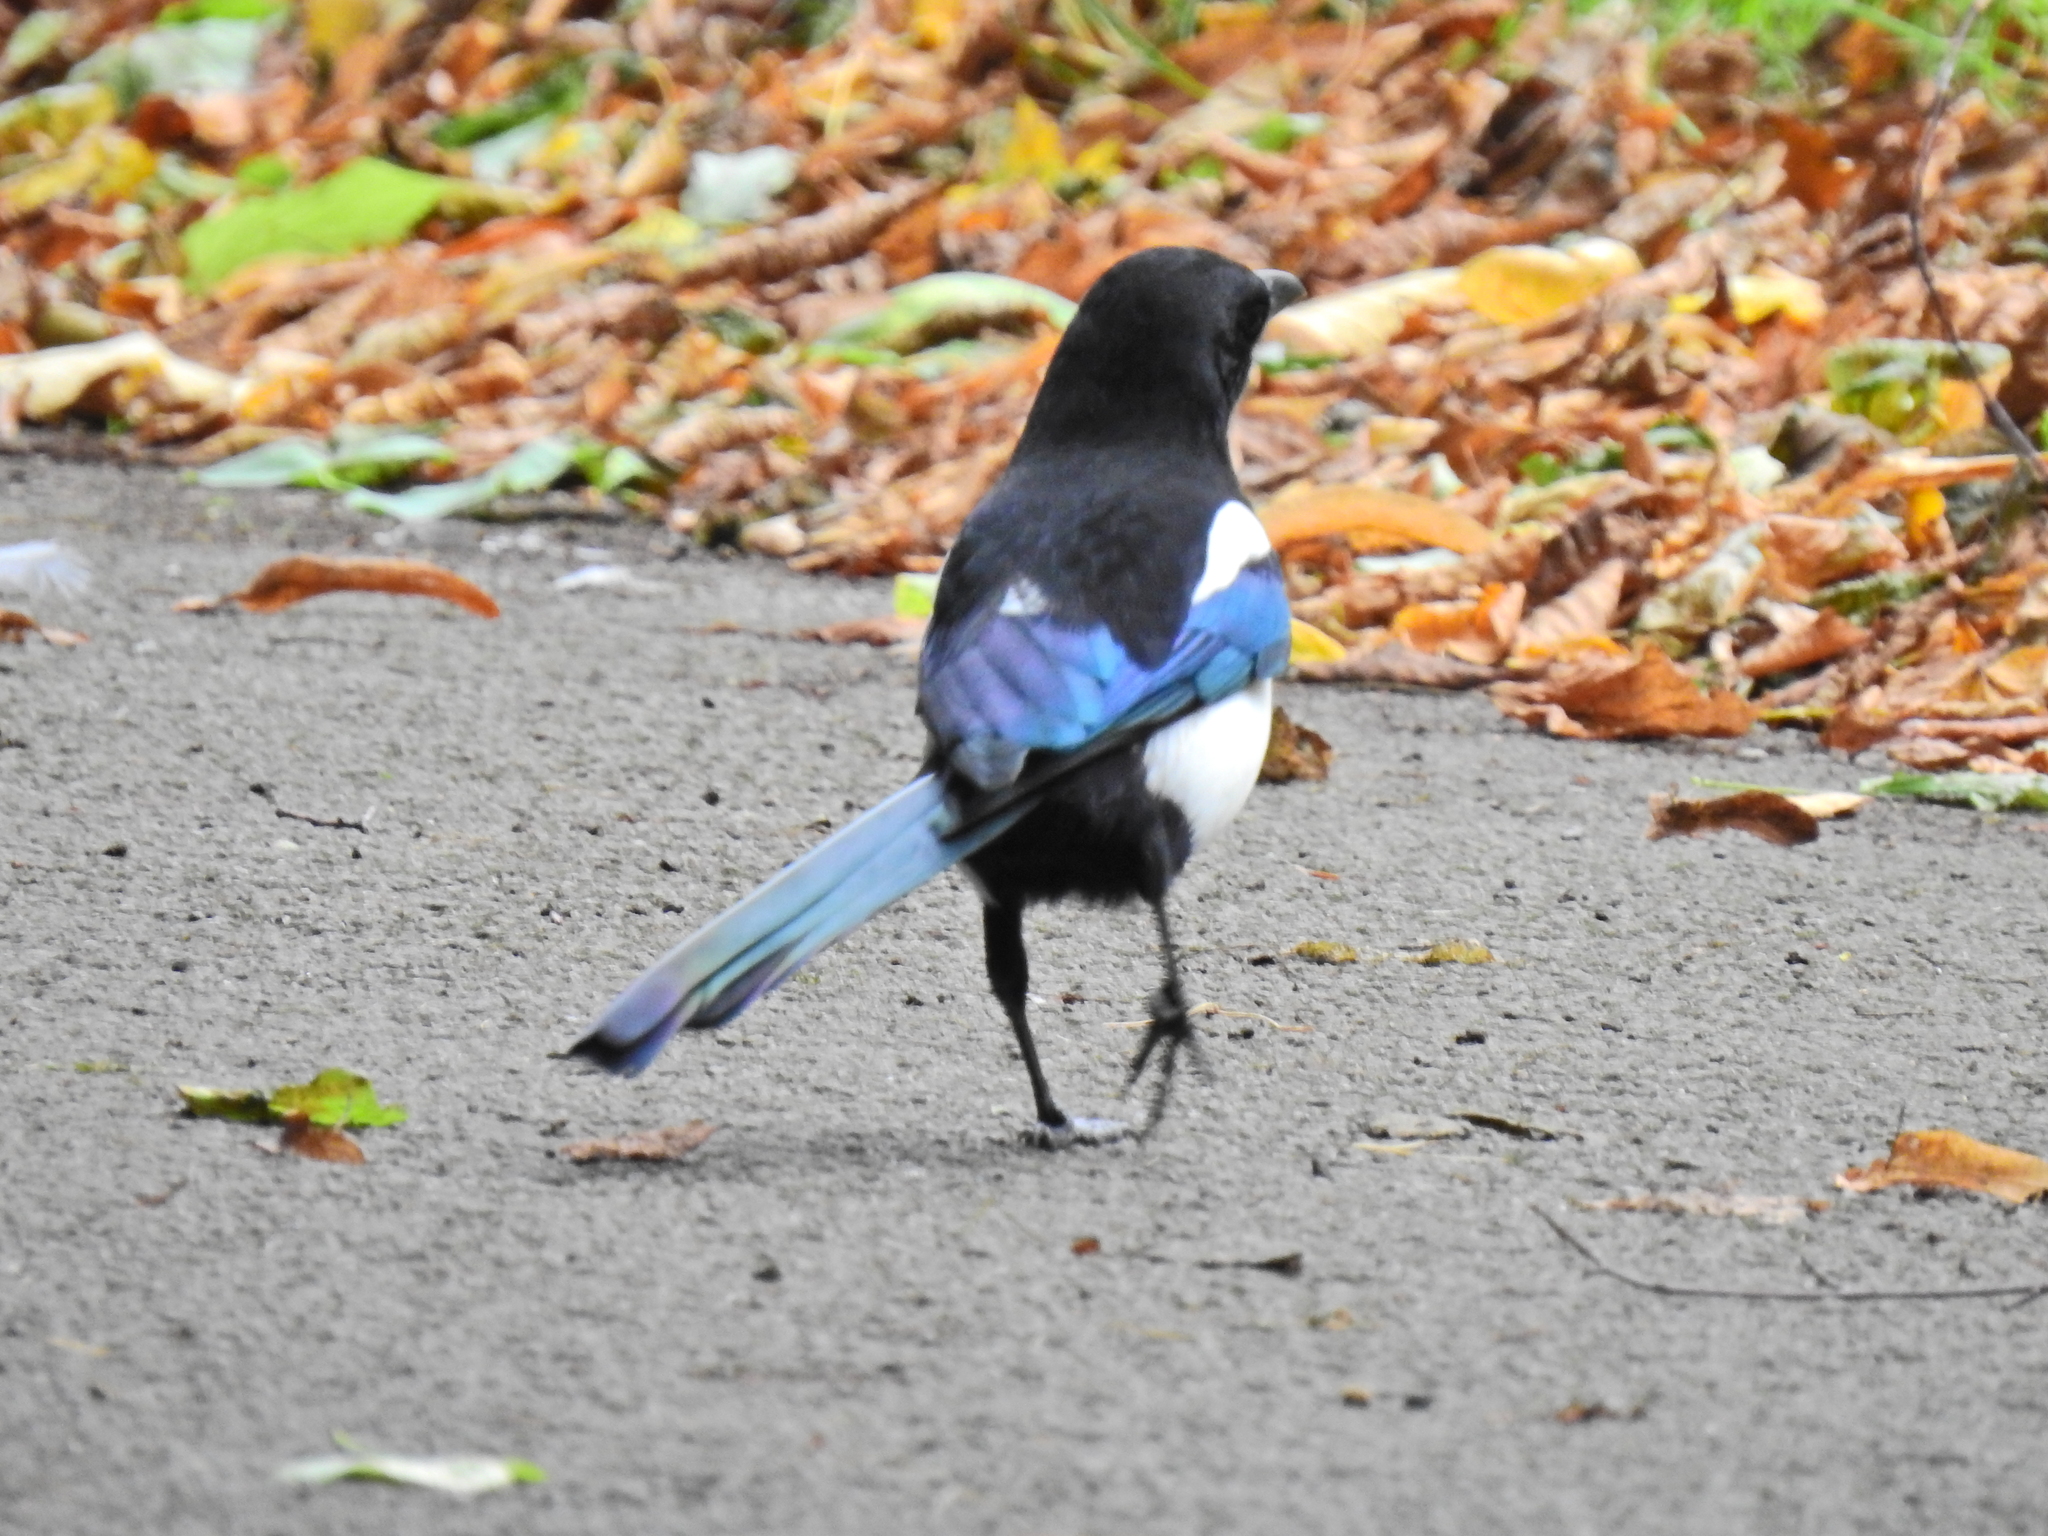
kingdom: Animalia
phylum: Chordata
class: Aves
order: Passeriformes
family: Corvidae
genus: Pica
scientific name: Pica pica
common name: Eurasian magpie
